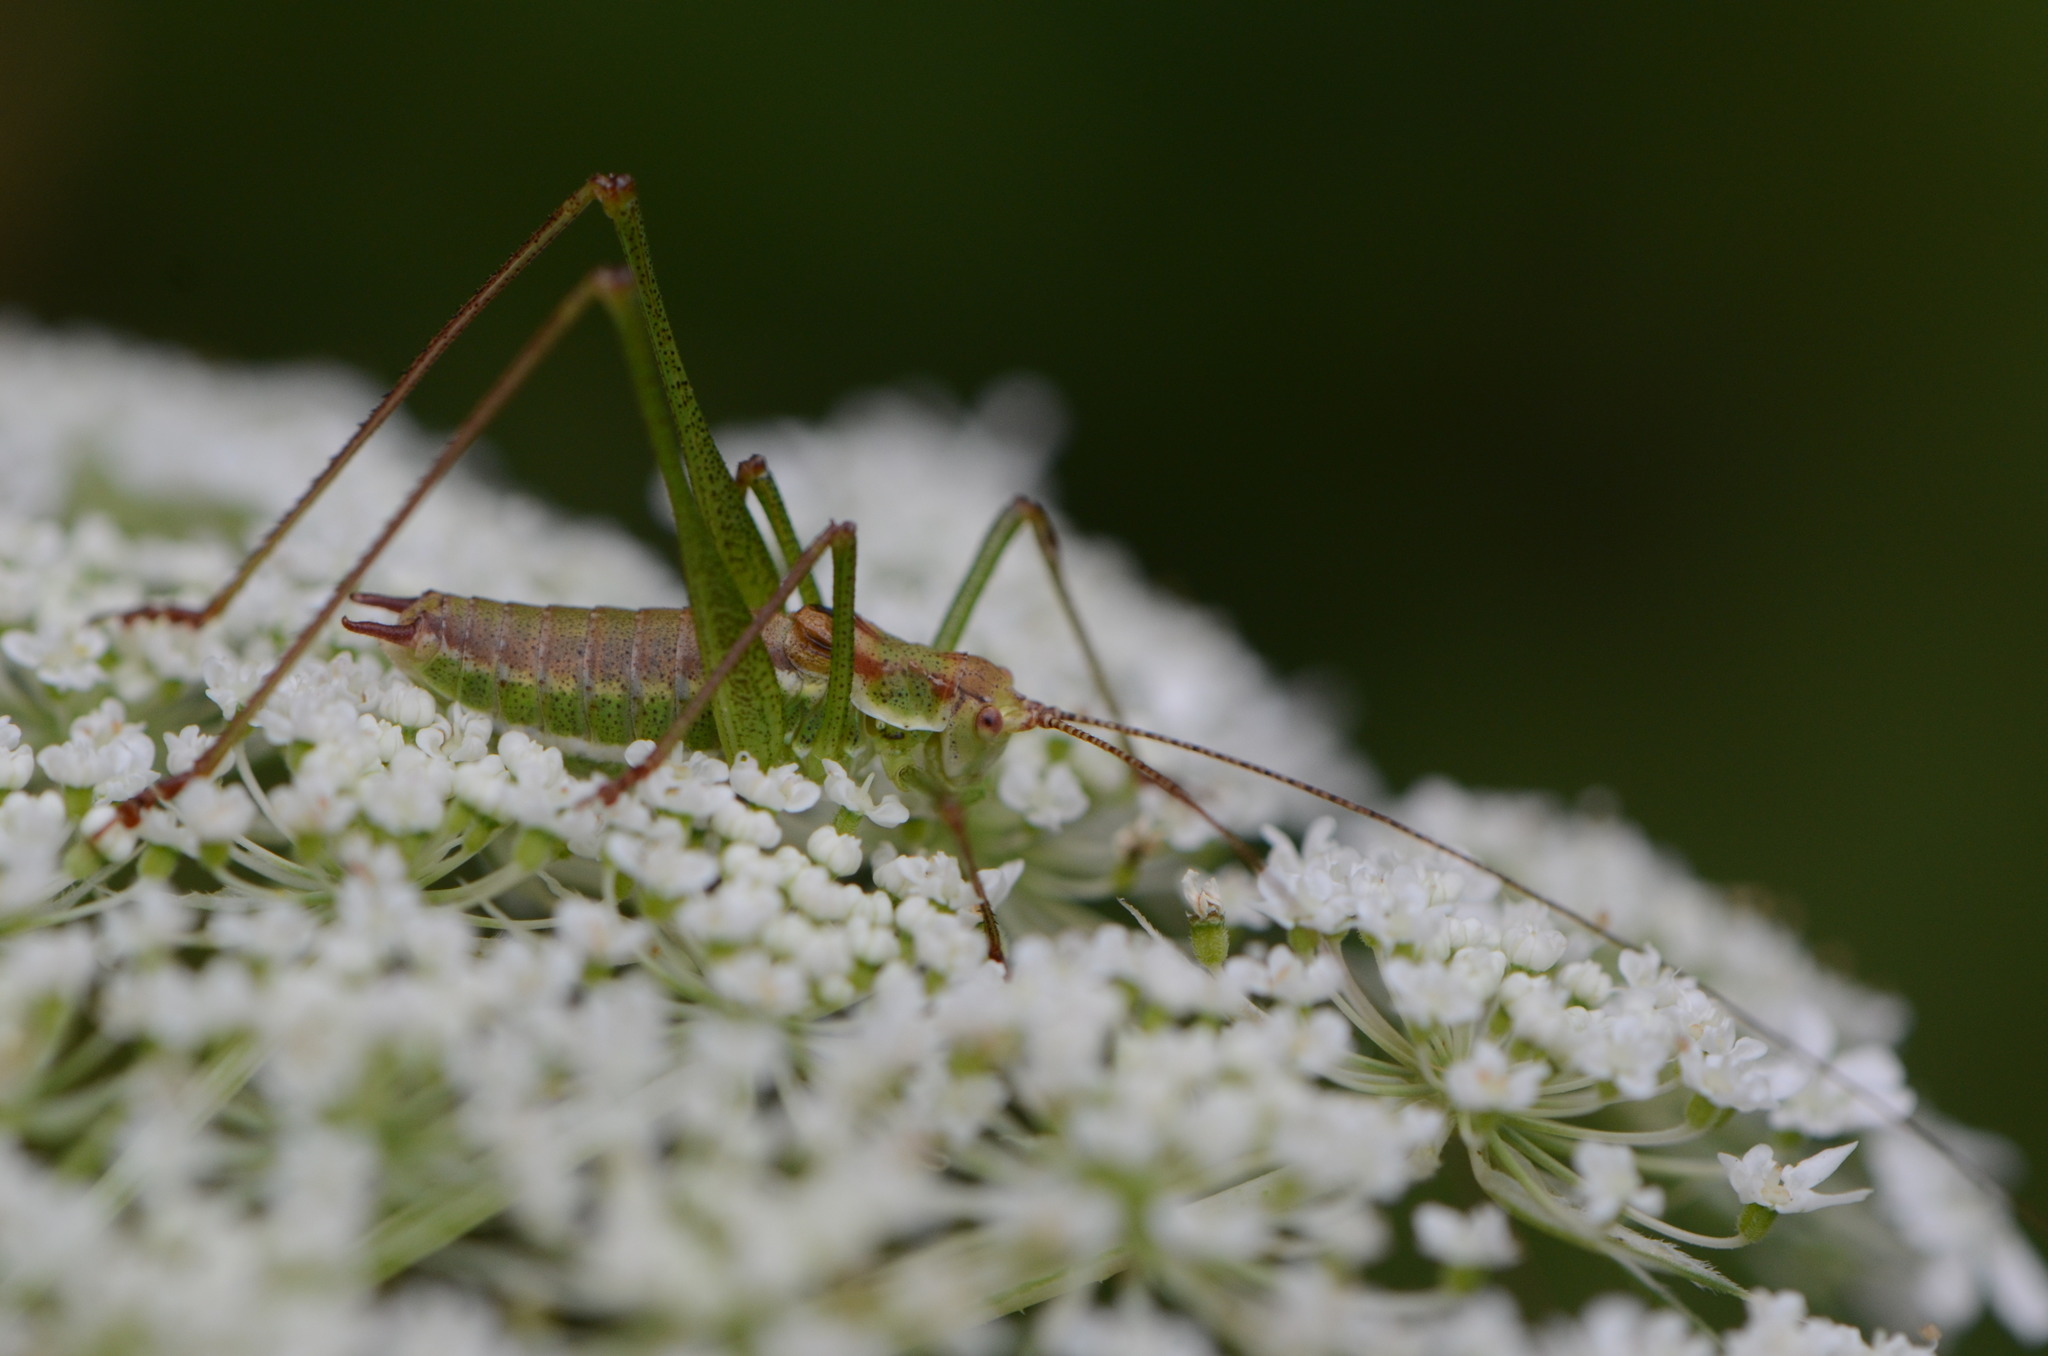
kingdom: Animalia
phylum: Arthropoda
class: Insecta
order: Orthoptera
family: Tettigoniidae
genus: Leptophyes
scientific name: Leptophyes albovittata
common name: Striped bush-cricket
